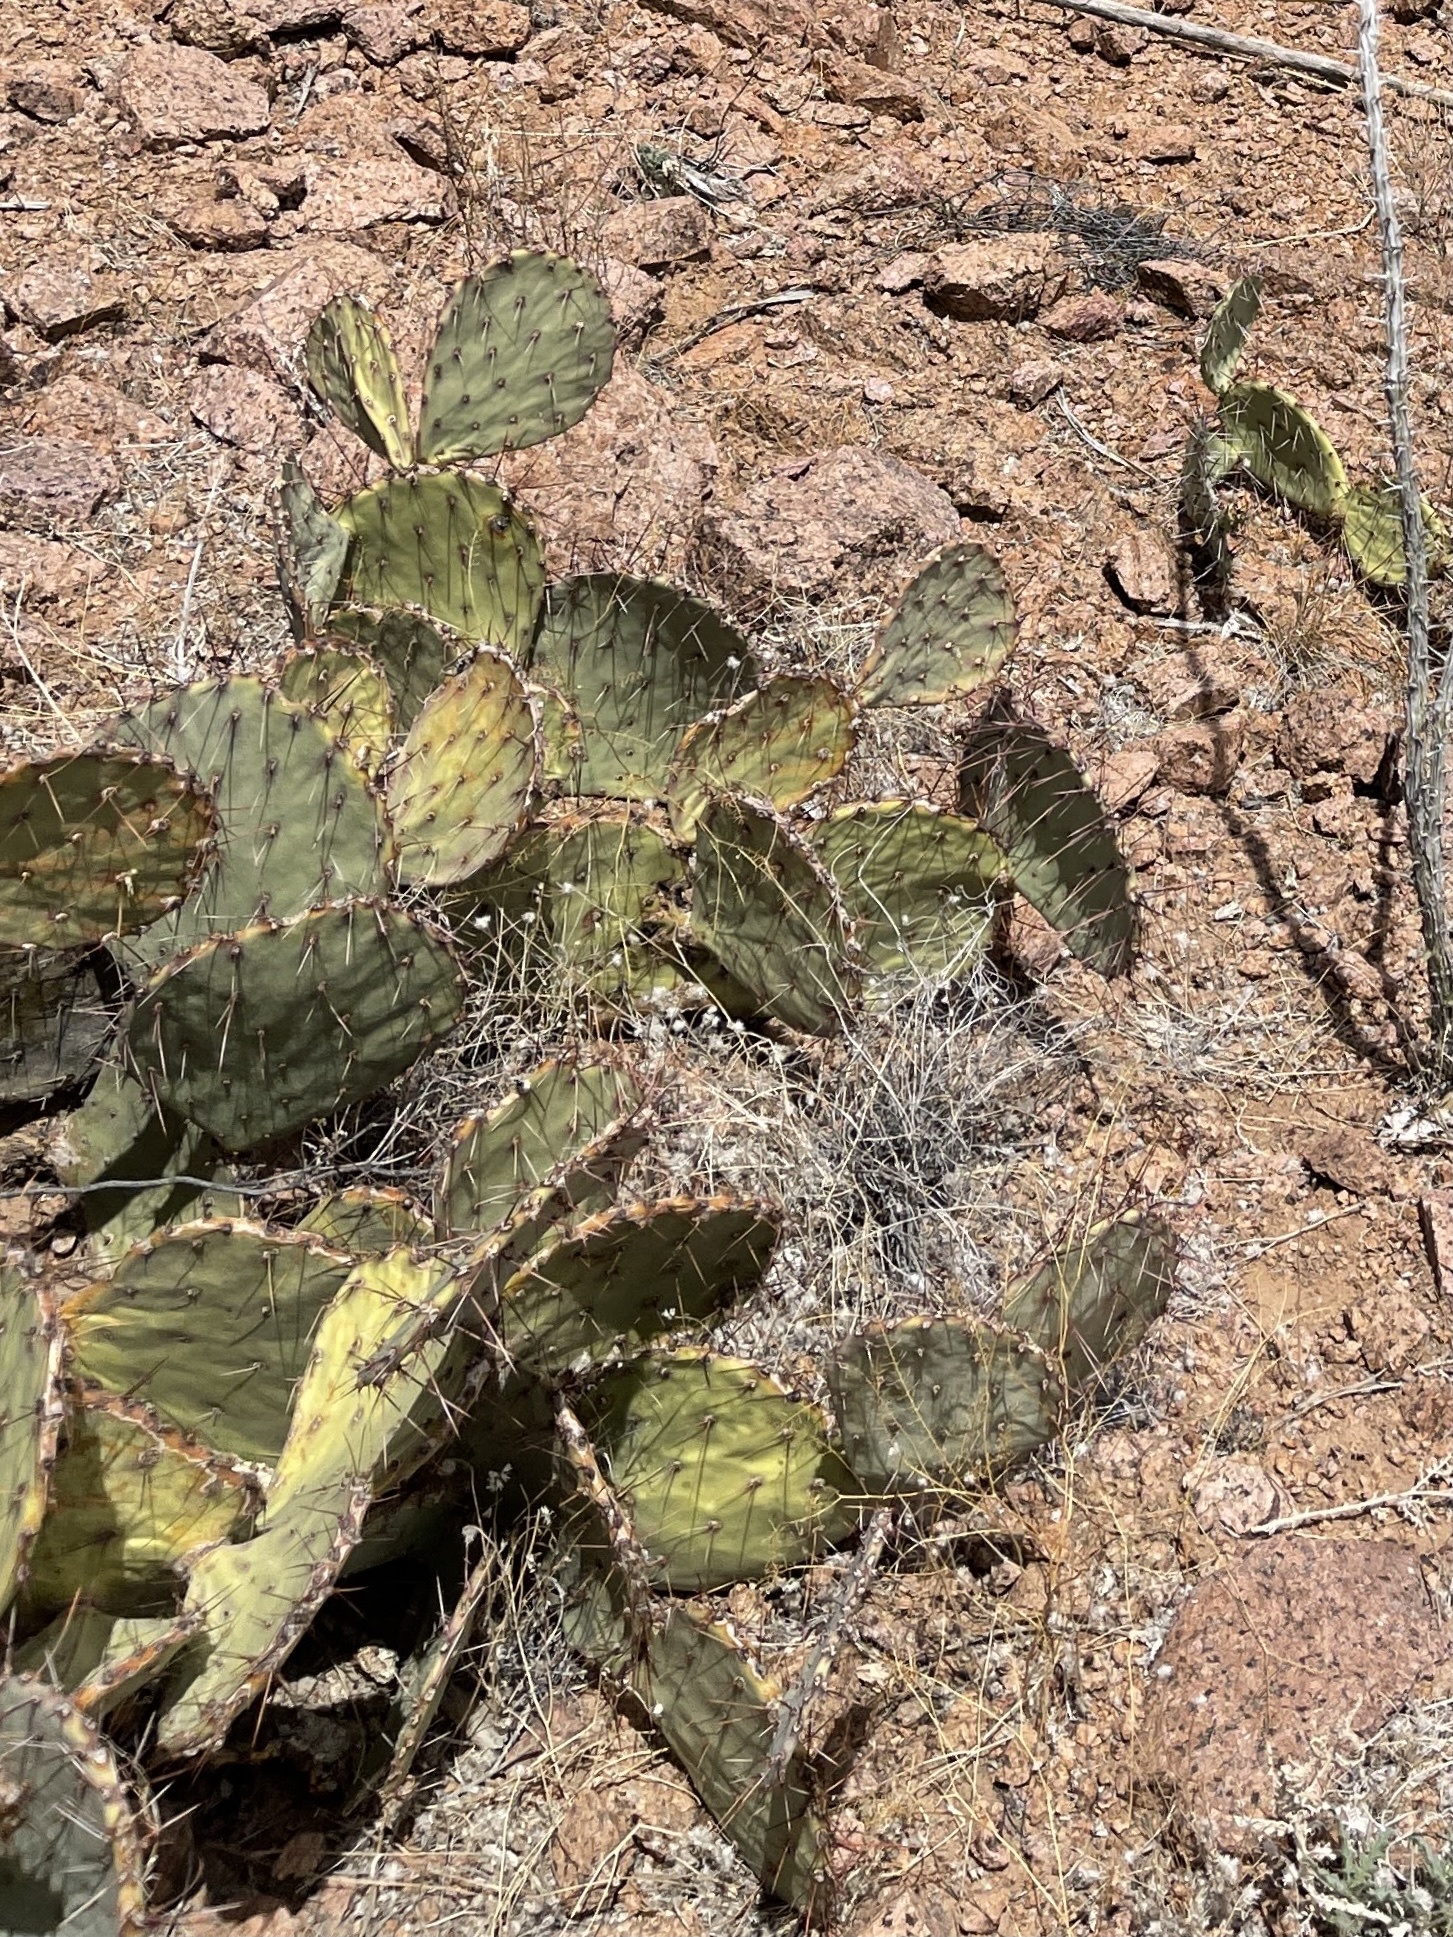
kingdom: Plantae
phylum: Tracheophyta
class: Magnoliopsida
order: Caryophyllales
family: Cactaceae
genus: Opuntia
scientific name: Opuntia phaeacantha
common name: New mexico prickly-pear
